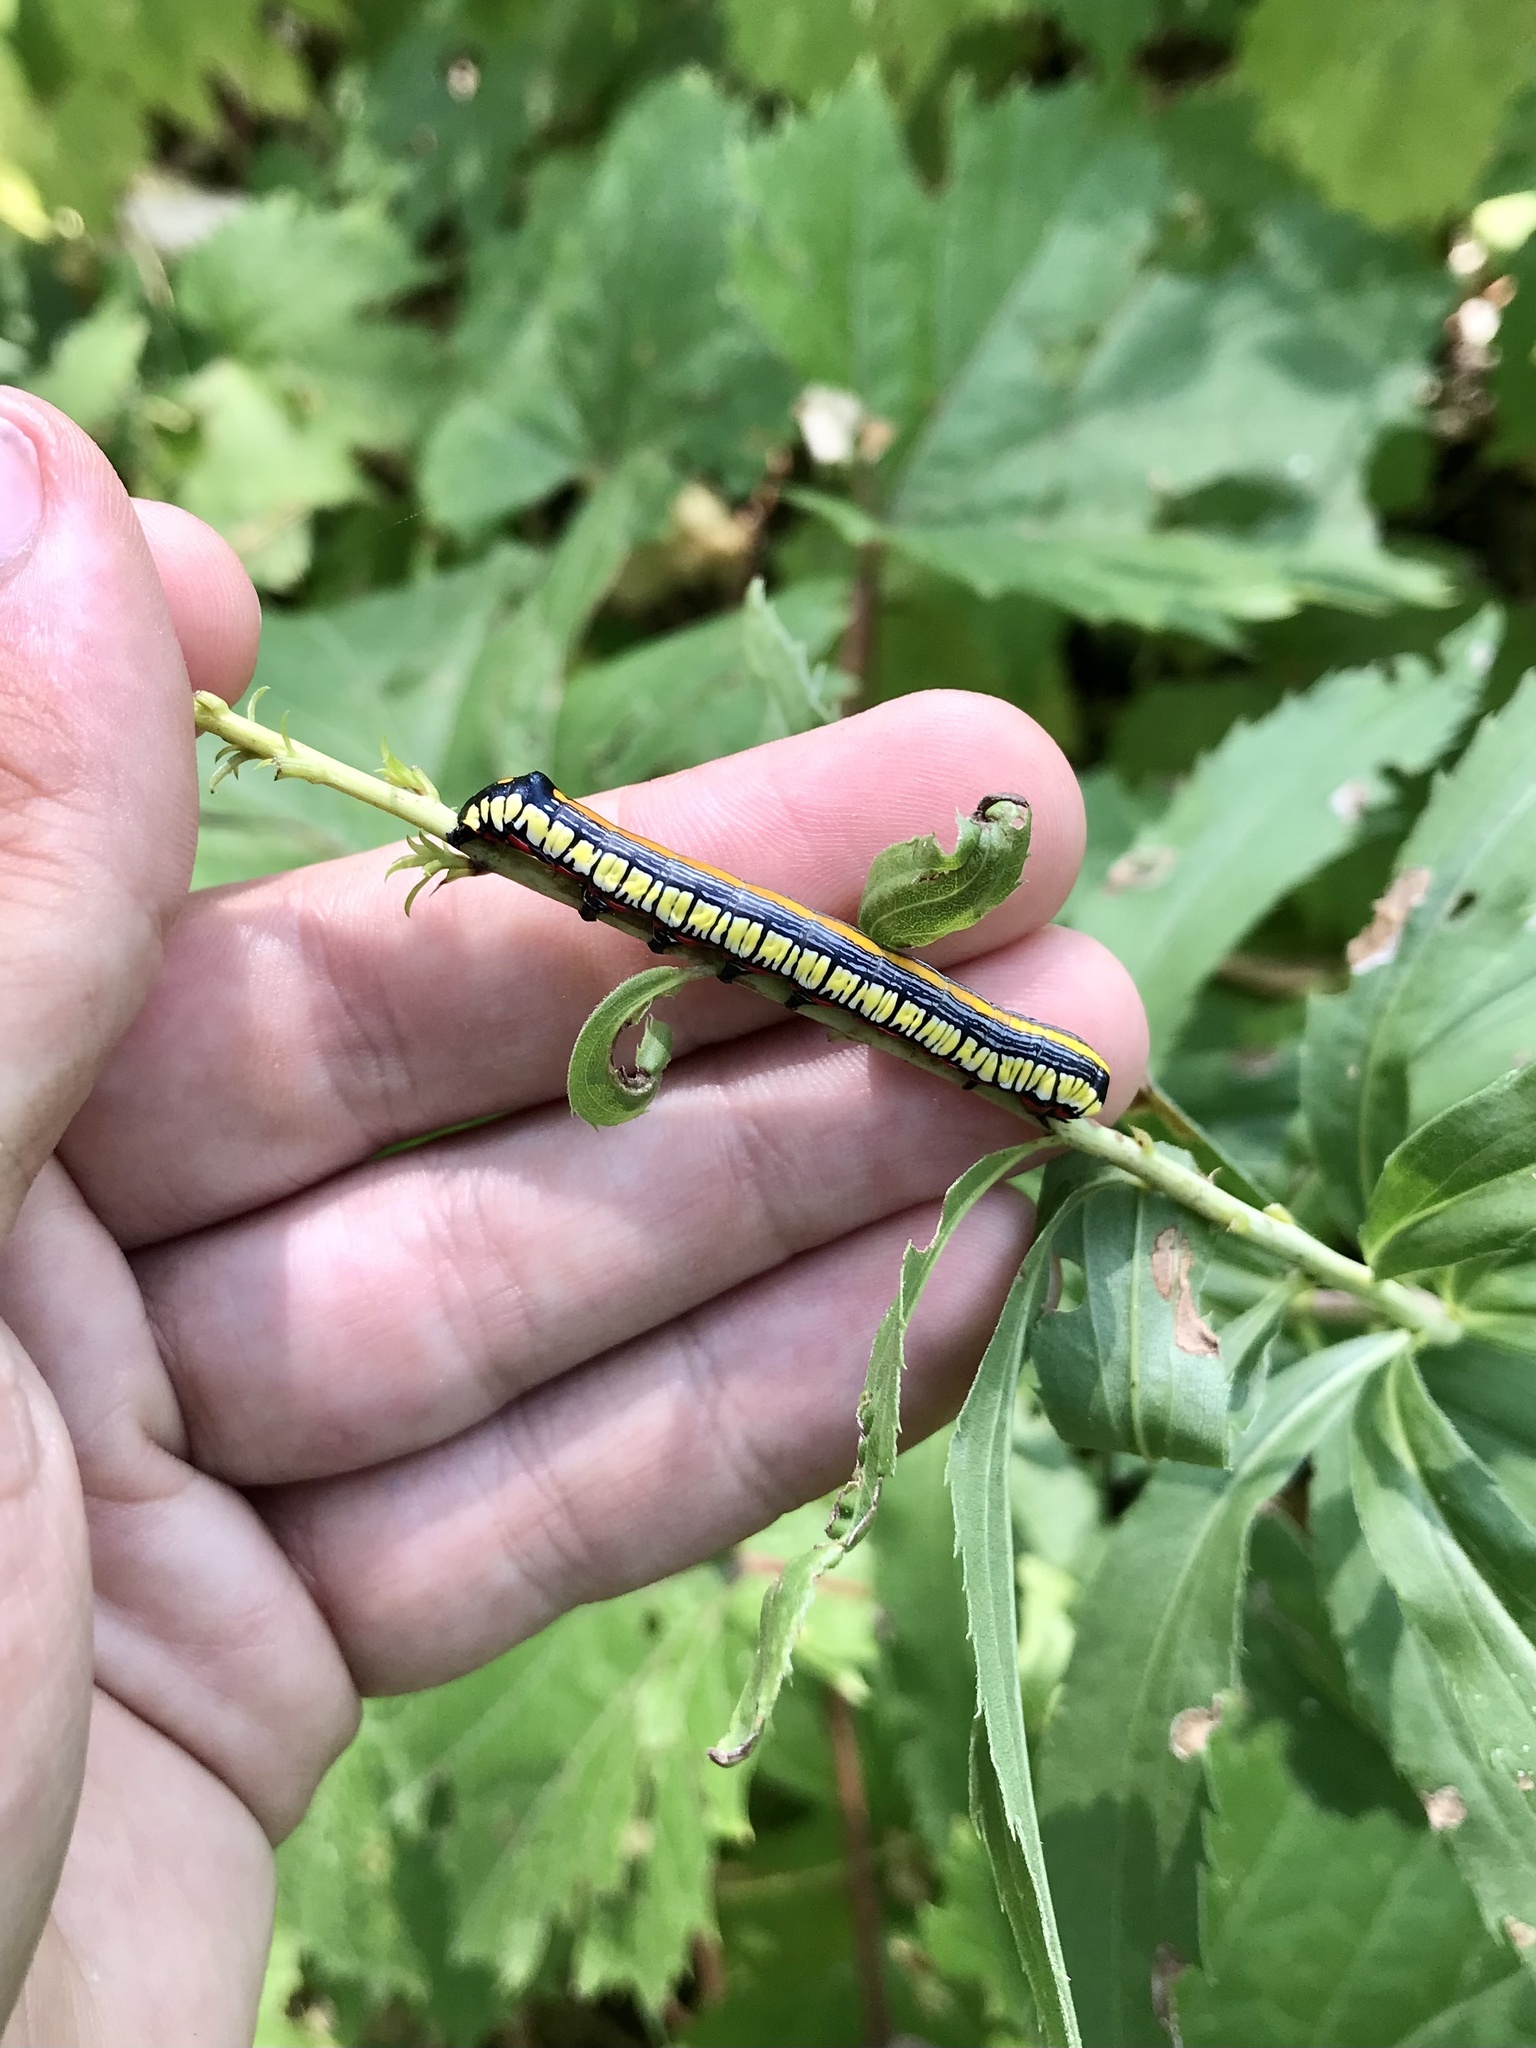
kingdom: Animalia
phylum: Arthropoda
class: Insecta
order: Lepidoptera
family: Noctuidae
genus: Cucullia
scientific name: Cucullia convexipennis
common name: Brown-hooded owlet
